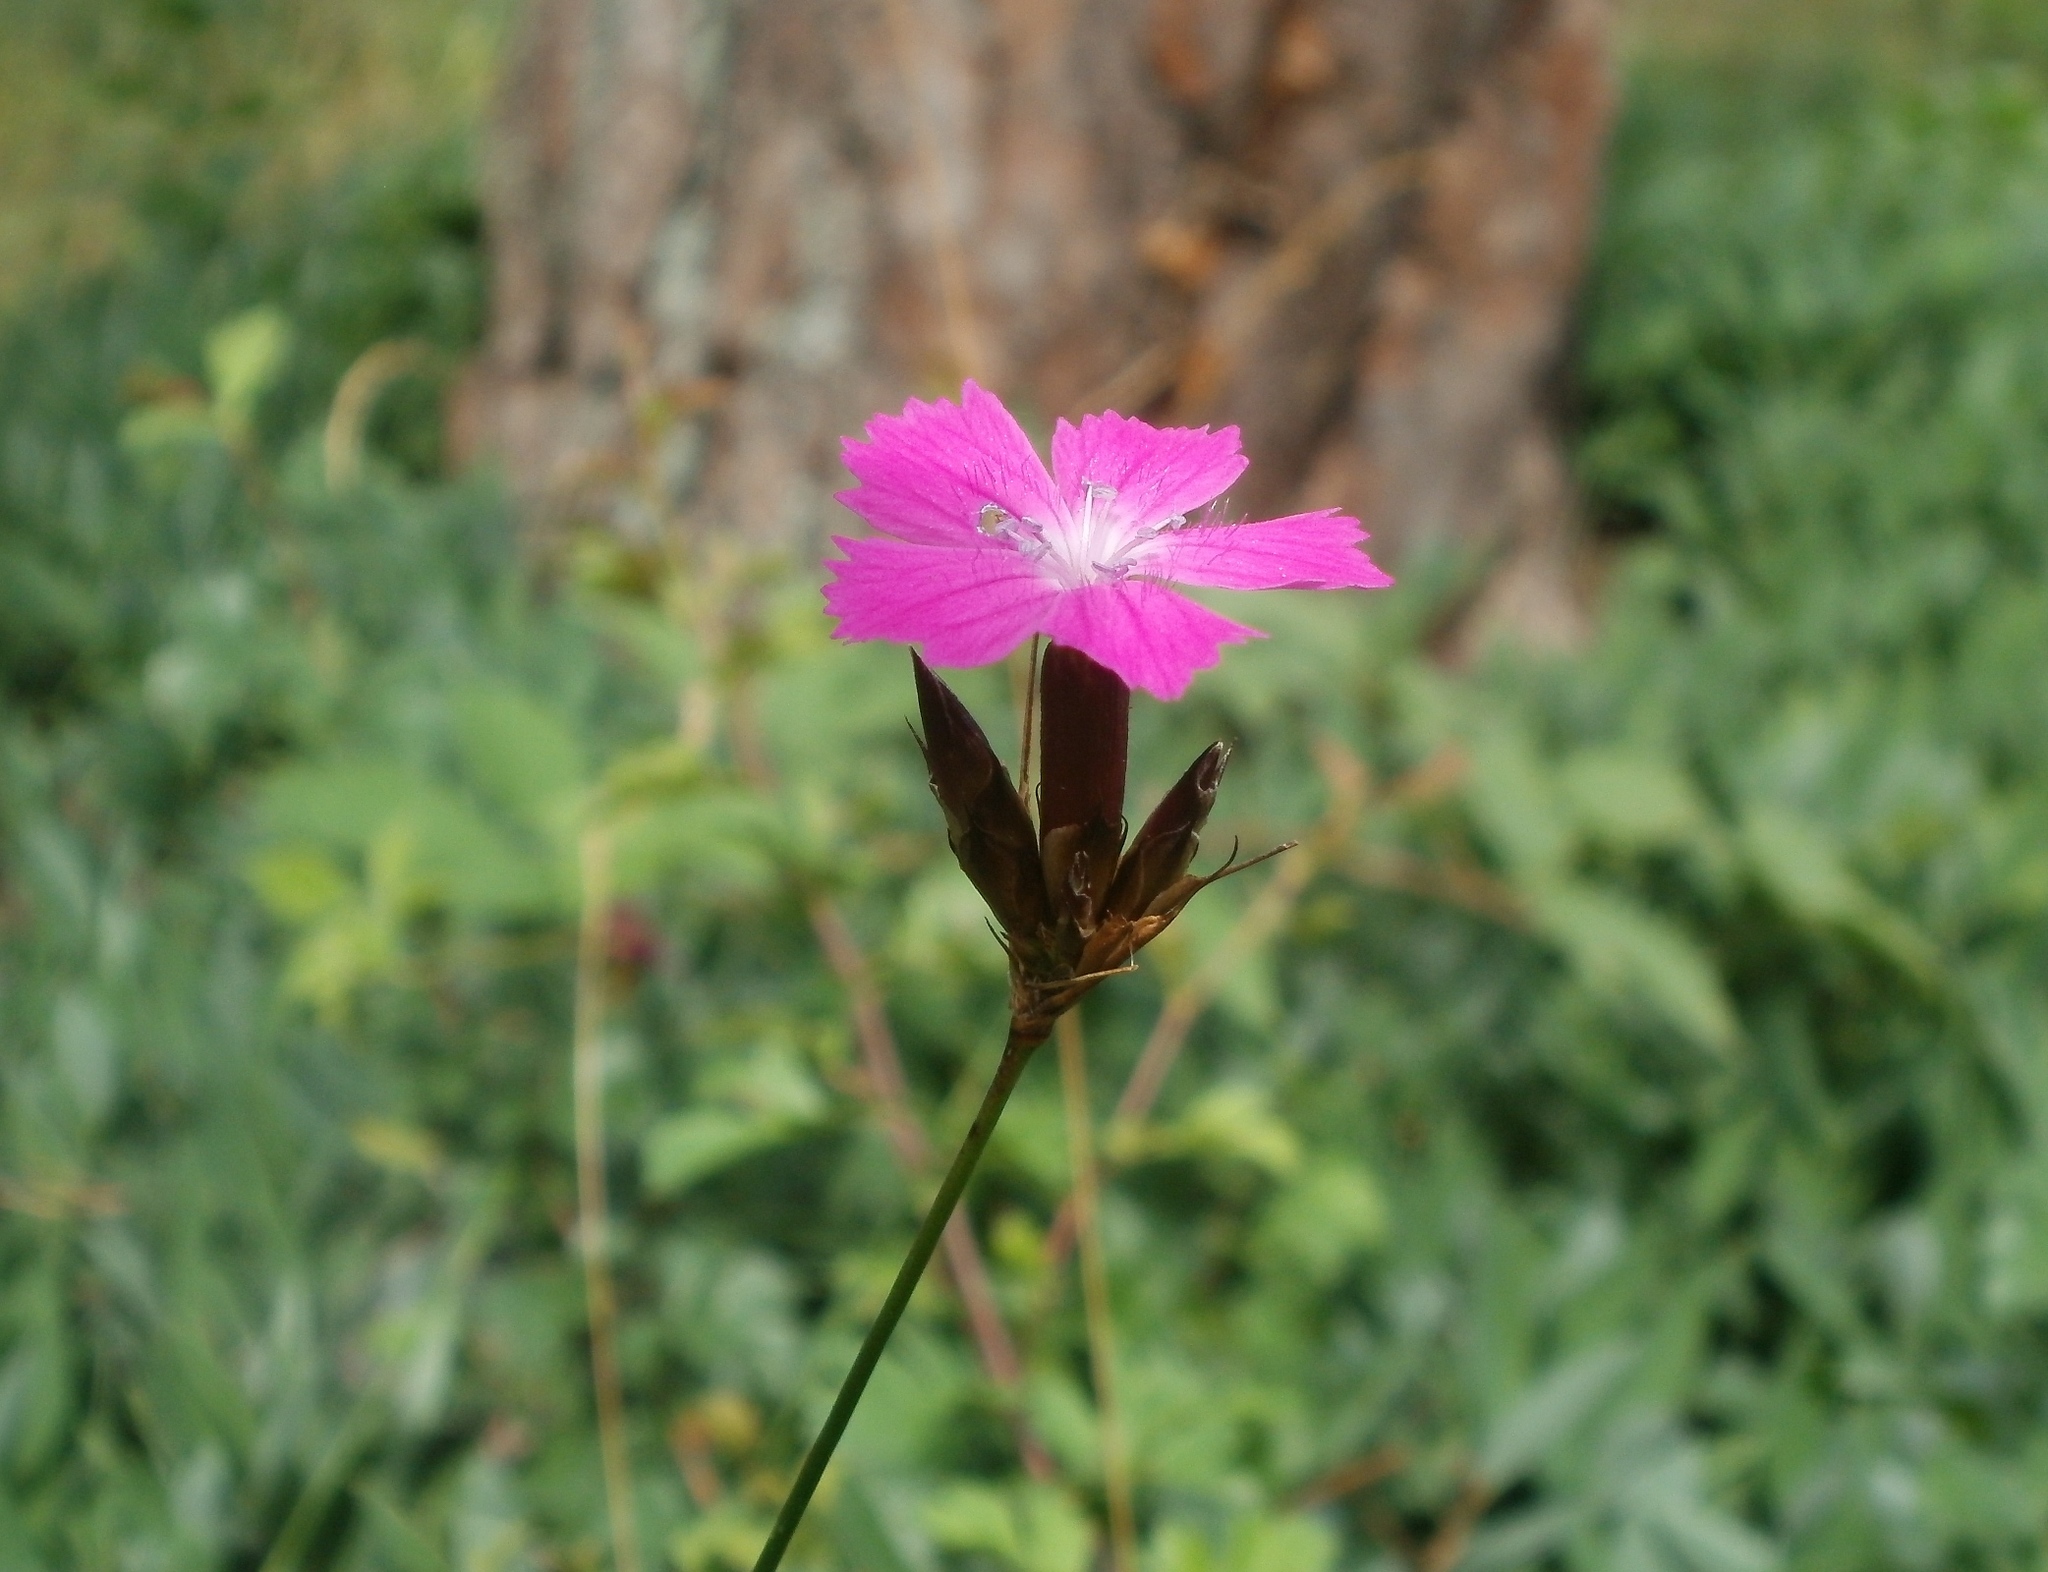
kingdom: Plantae
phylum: Tracheophyta
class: Magnoliopsida
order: Caryophyllales
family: Caryophyllaceae
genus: Dianthus
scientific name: Dianthus carthusianorum
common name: Carthusian pink
